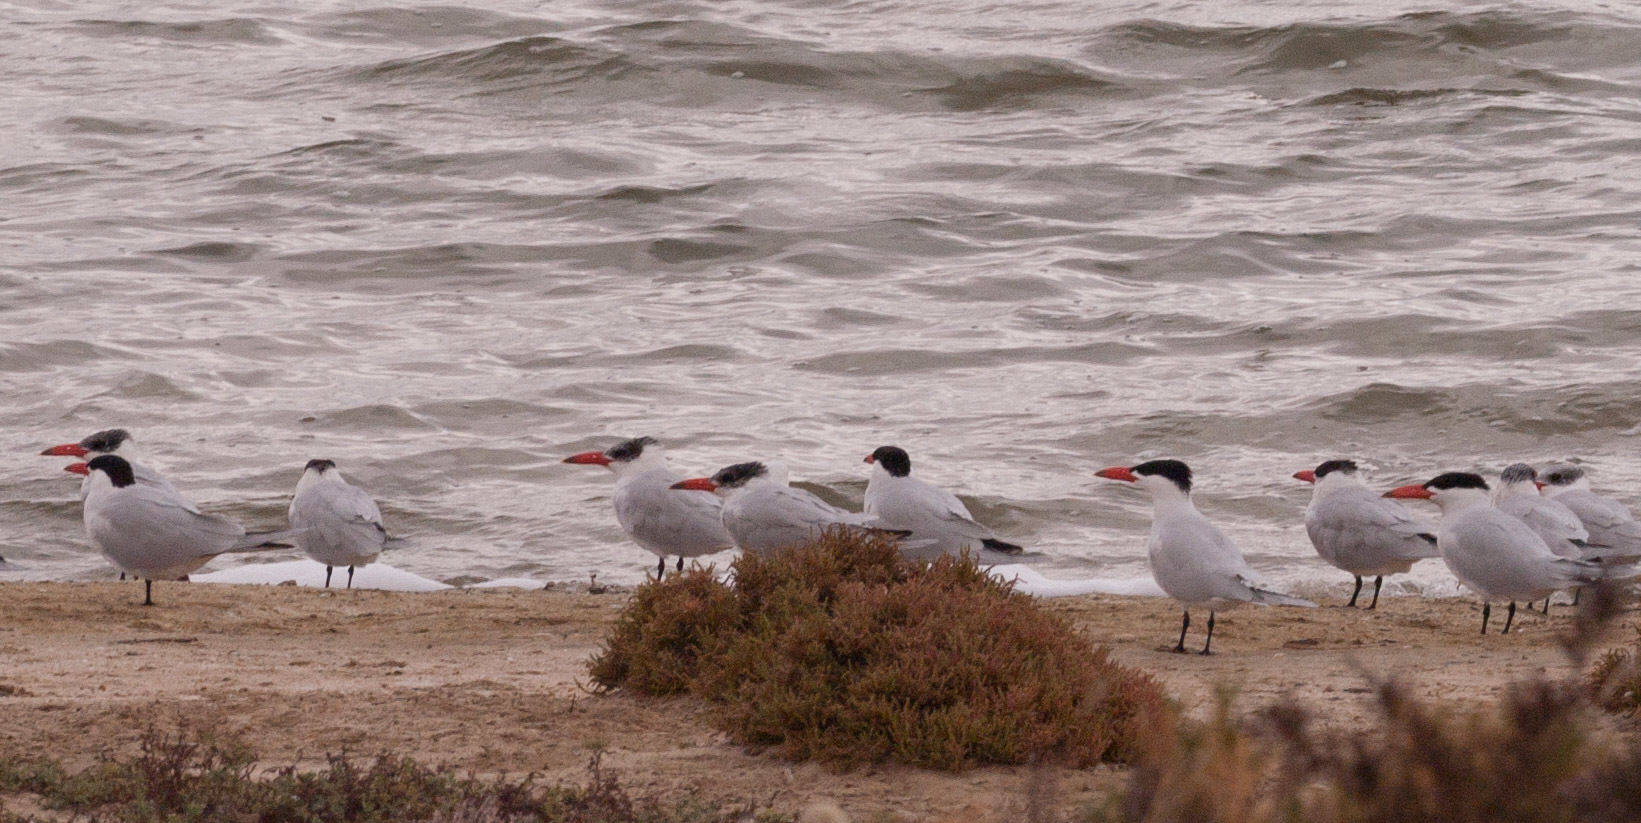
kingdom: Animalia
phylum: Chordata
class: Aves
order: Charadriiformes
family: Laridae
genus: Hydroprogne
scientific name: Hydroprogne caspia
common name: Caspian tern
